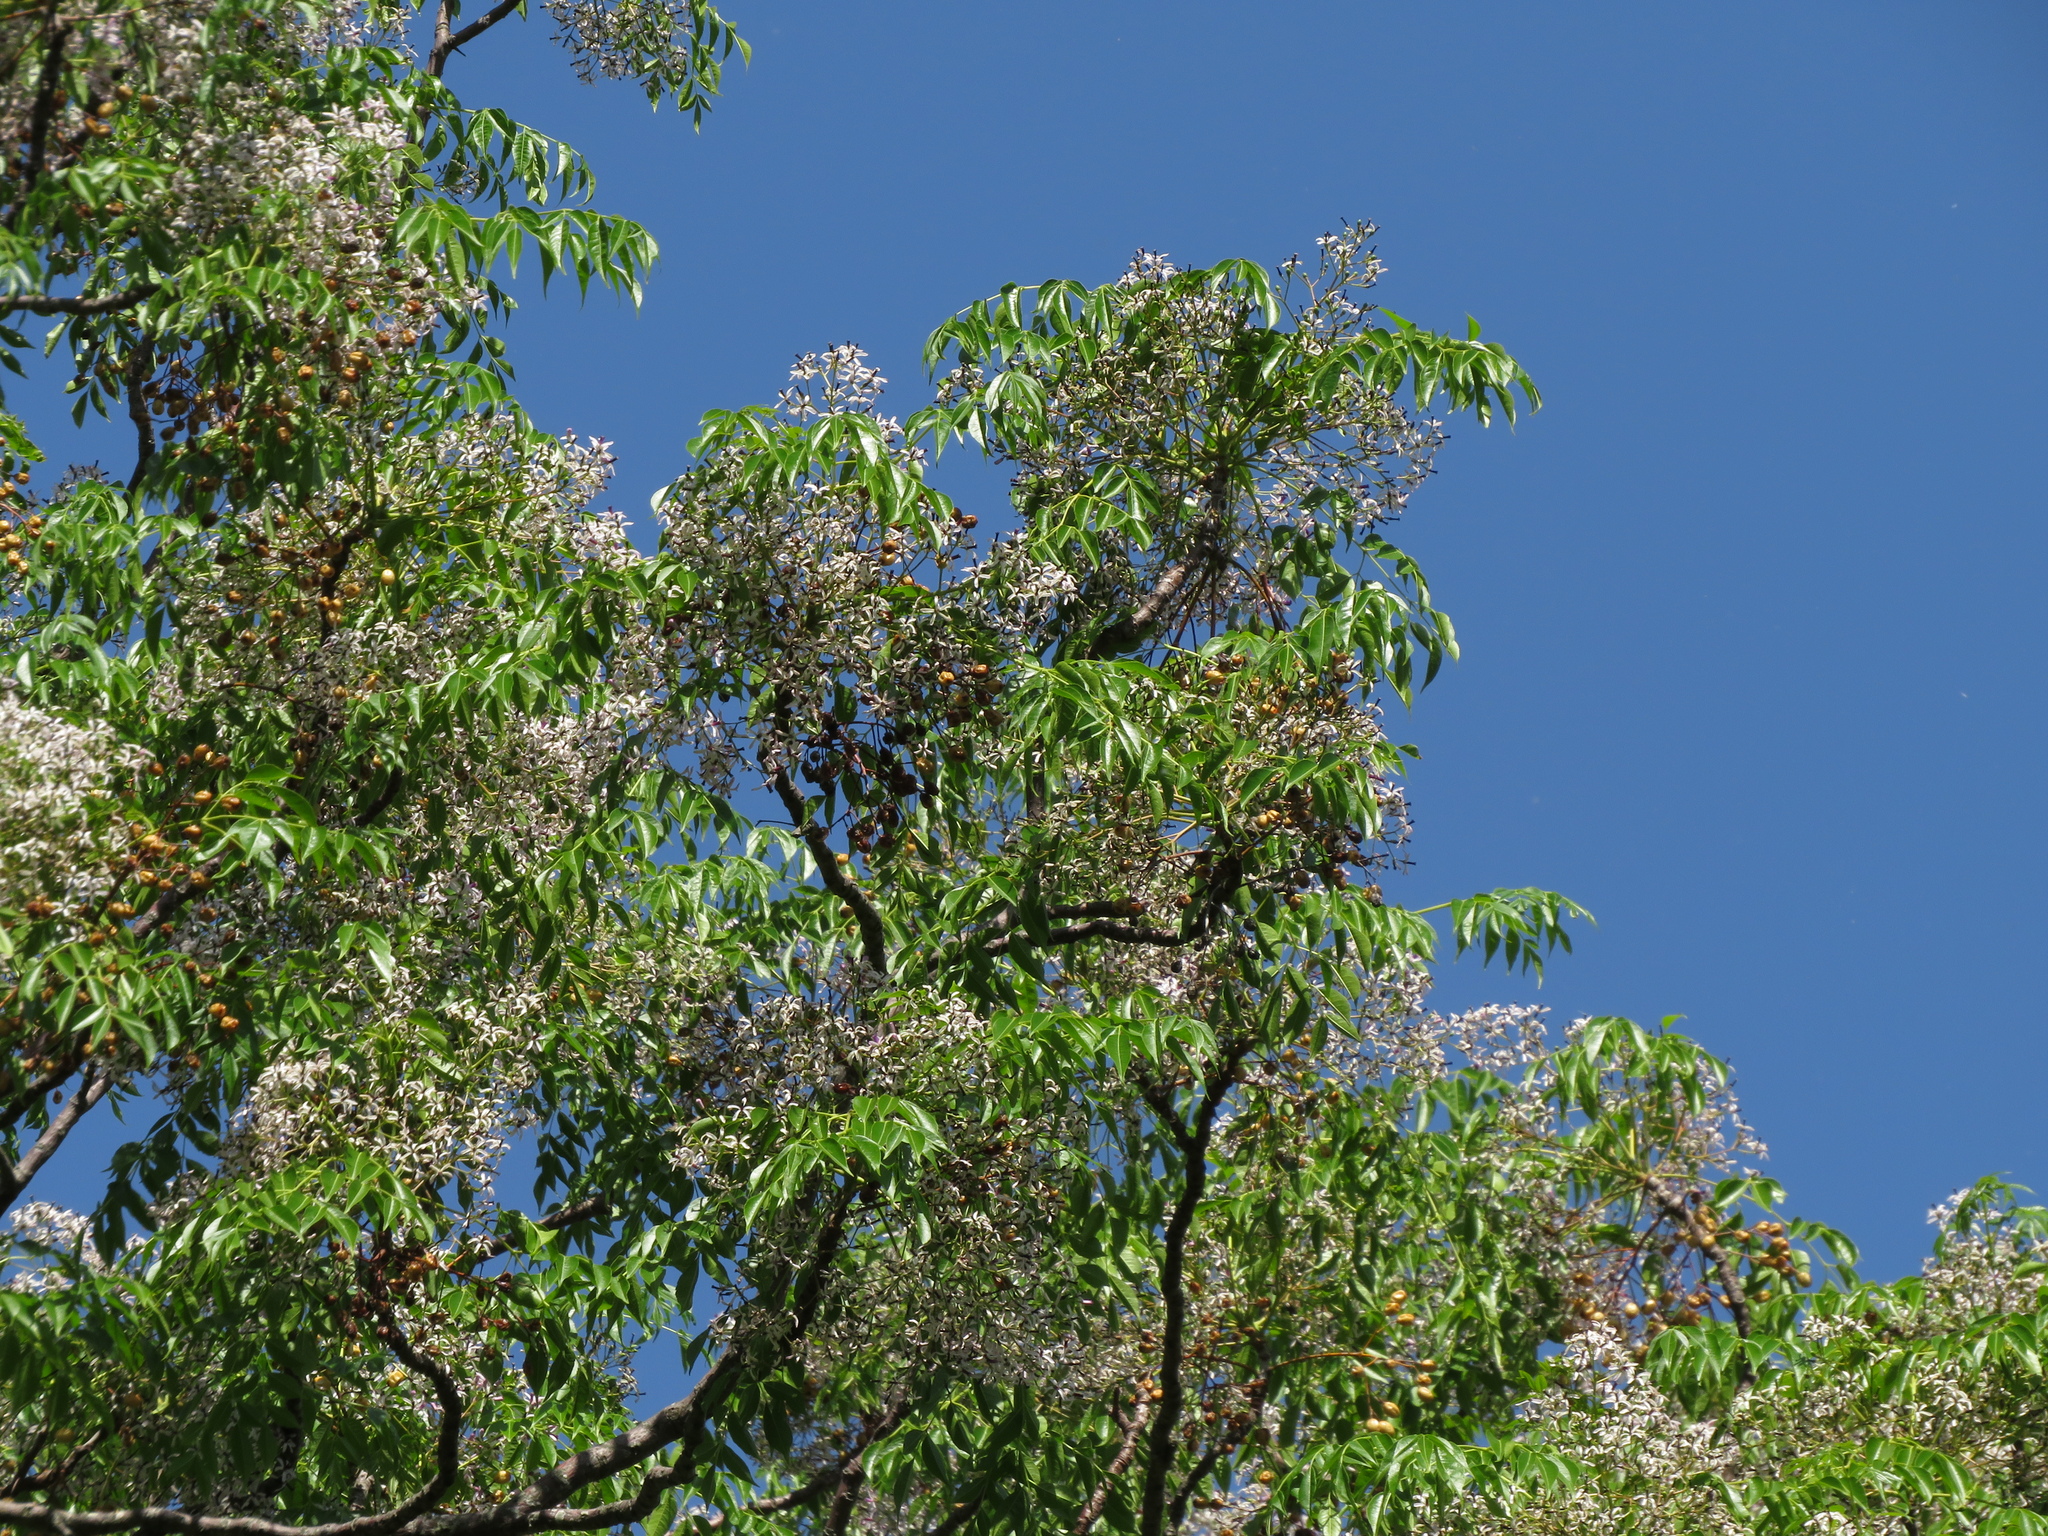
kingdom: Plantae
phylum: Tracheophyta
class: Magnoliopsida
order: Sapindales
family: Meliaceae
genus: Melia
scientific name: Melia azedarach
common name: Chinaberrytree
